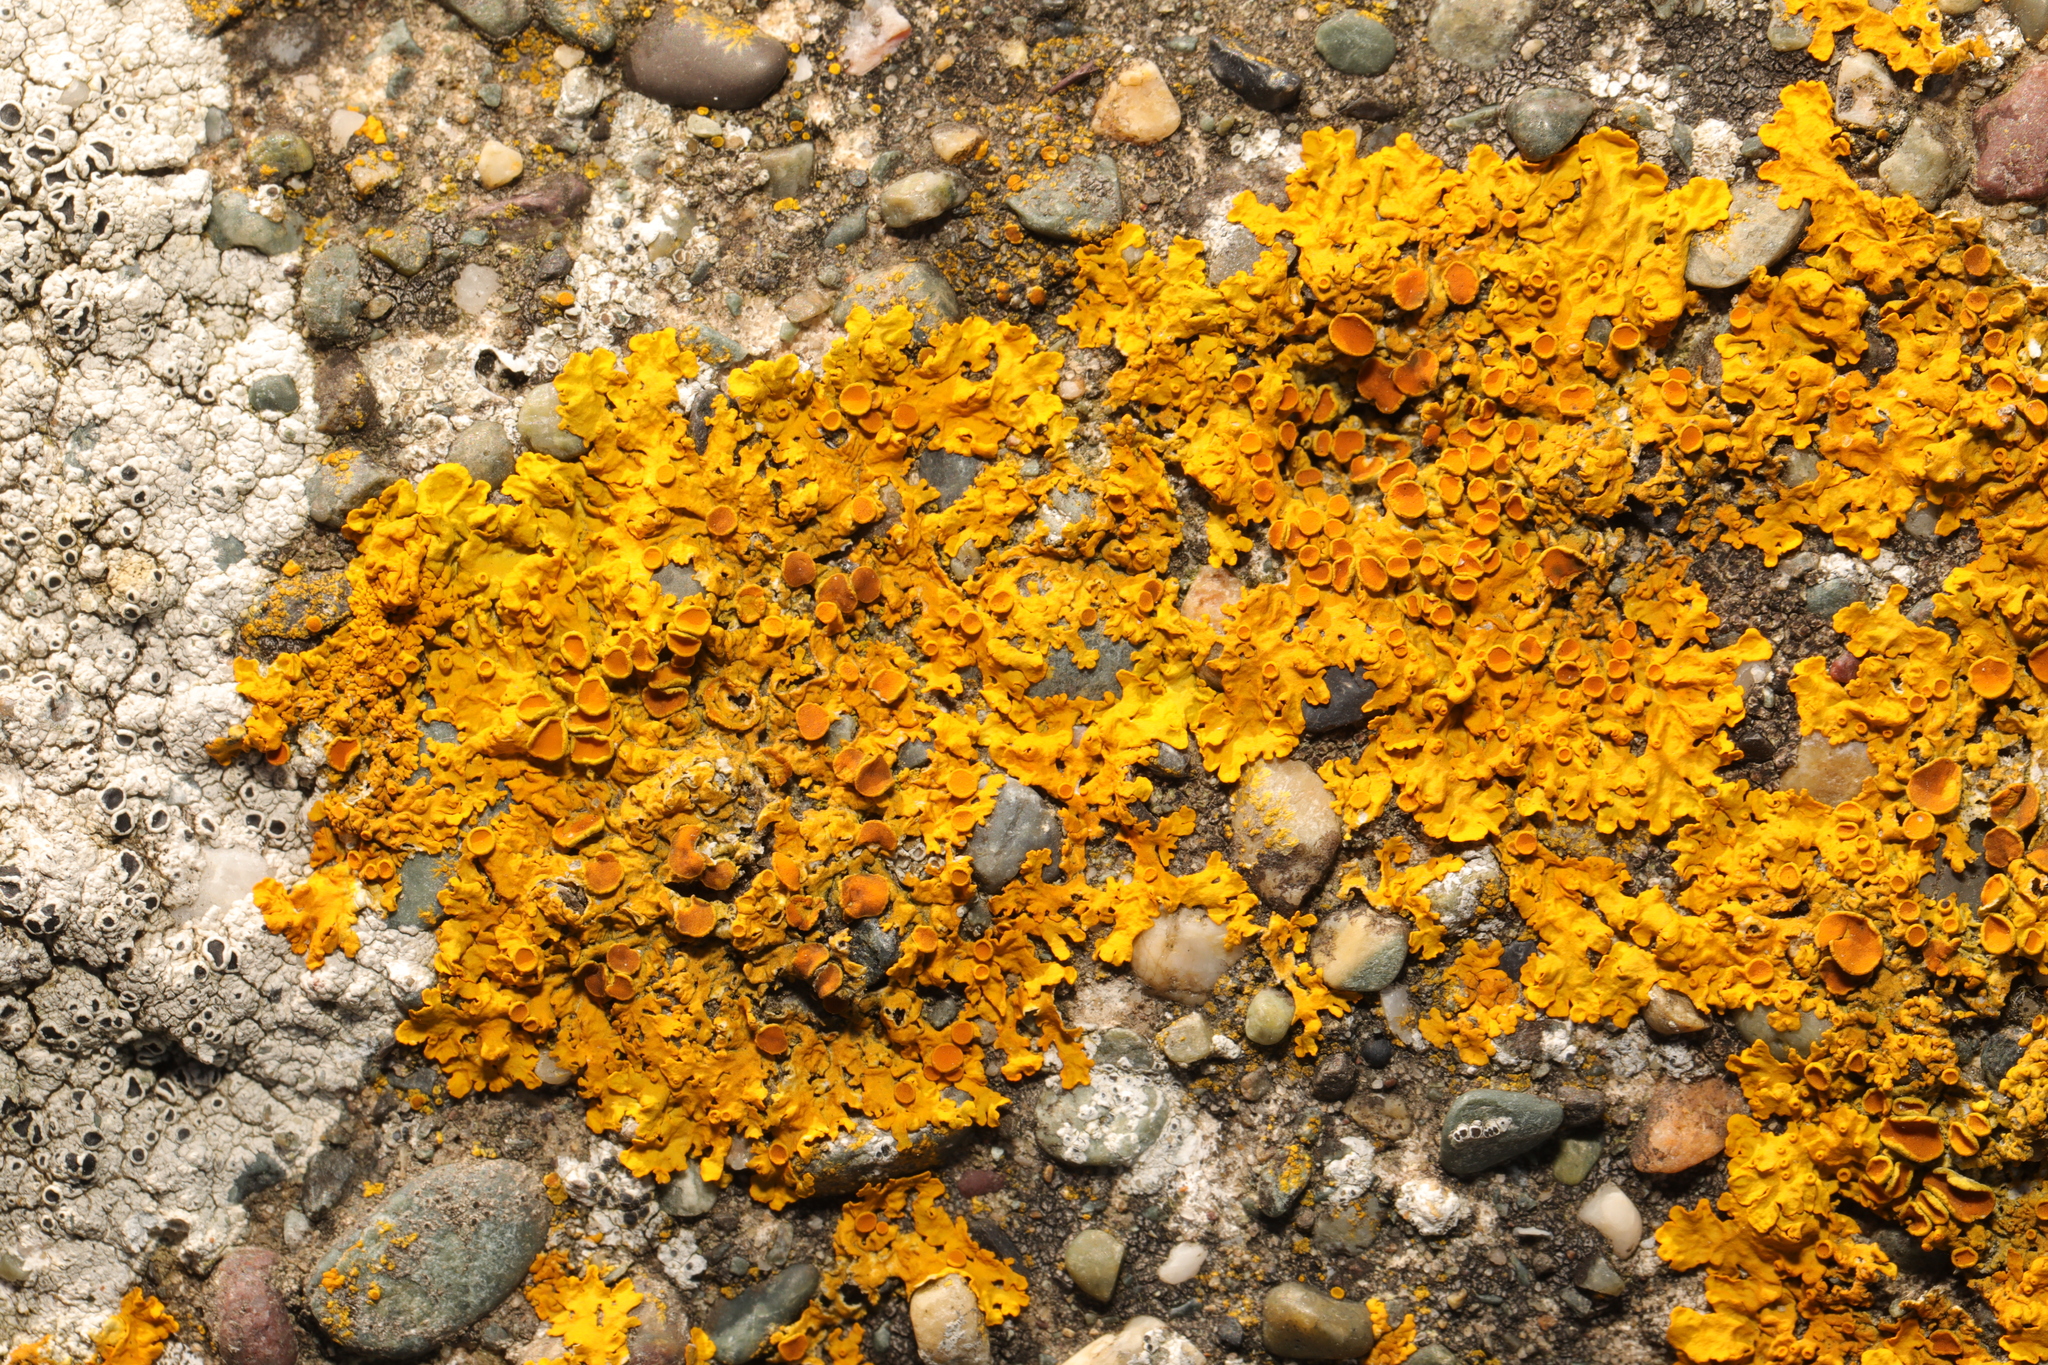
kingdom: Fungi
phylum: Ascomycota
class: Lecanoromycetes
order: Teloschistales
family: Teloschistaceae
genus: Xanthoria
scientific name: Xanthoria parietina
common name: Common orange lichen
